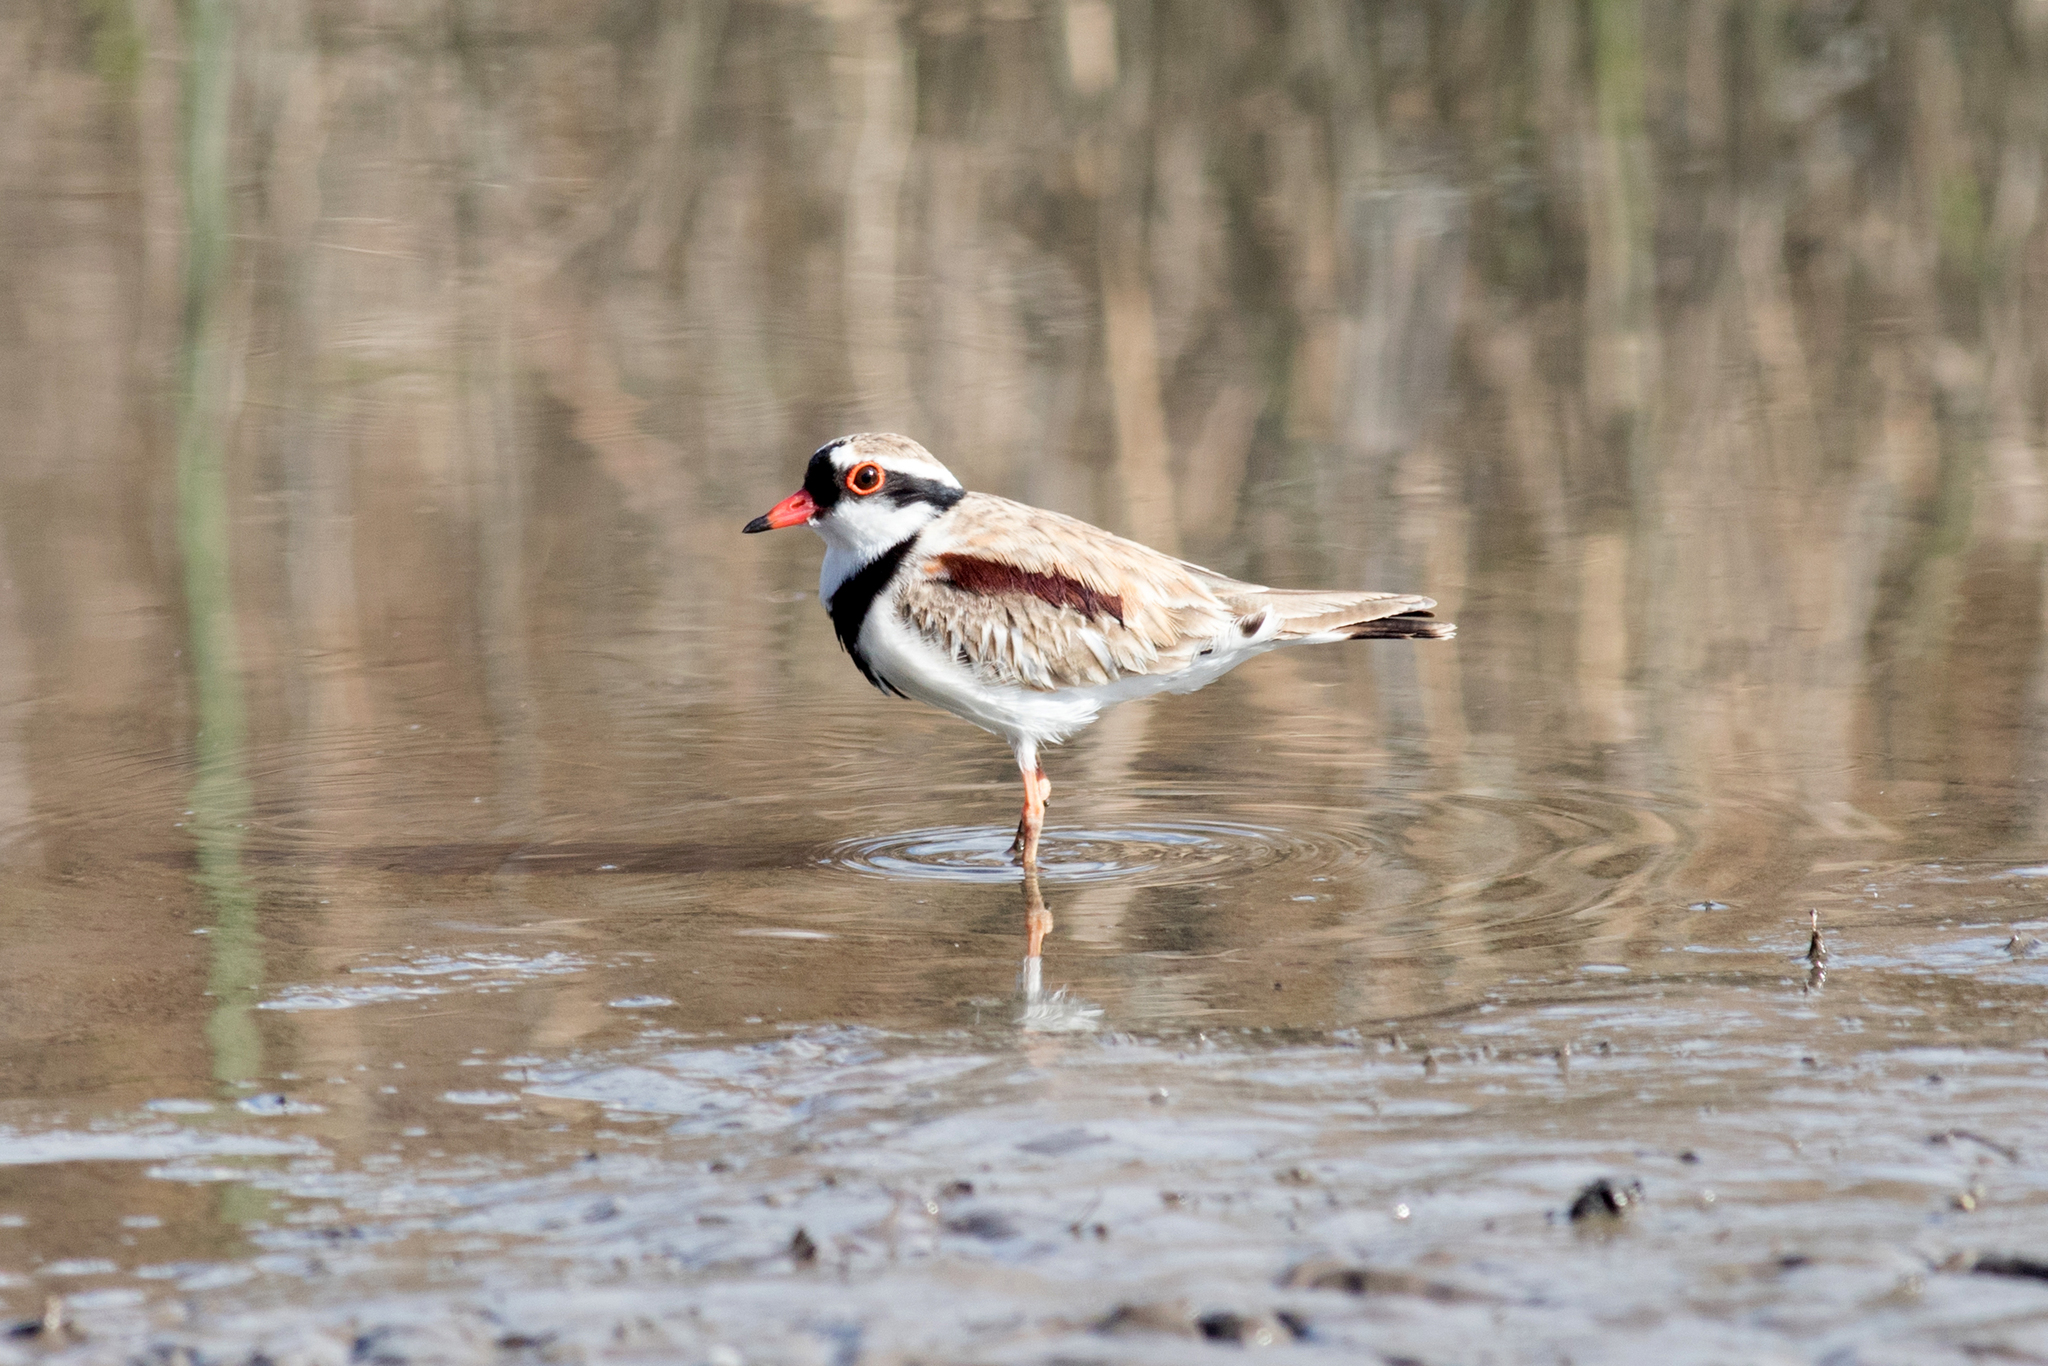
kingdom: Animalia
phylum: Chordata
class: Aves
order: Charadriiformes
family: Charadriidae
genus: Elseyornis
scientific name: Elseyornis melanops
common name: Black-fronted dotterel
